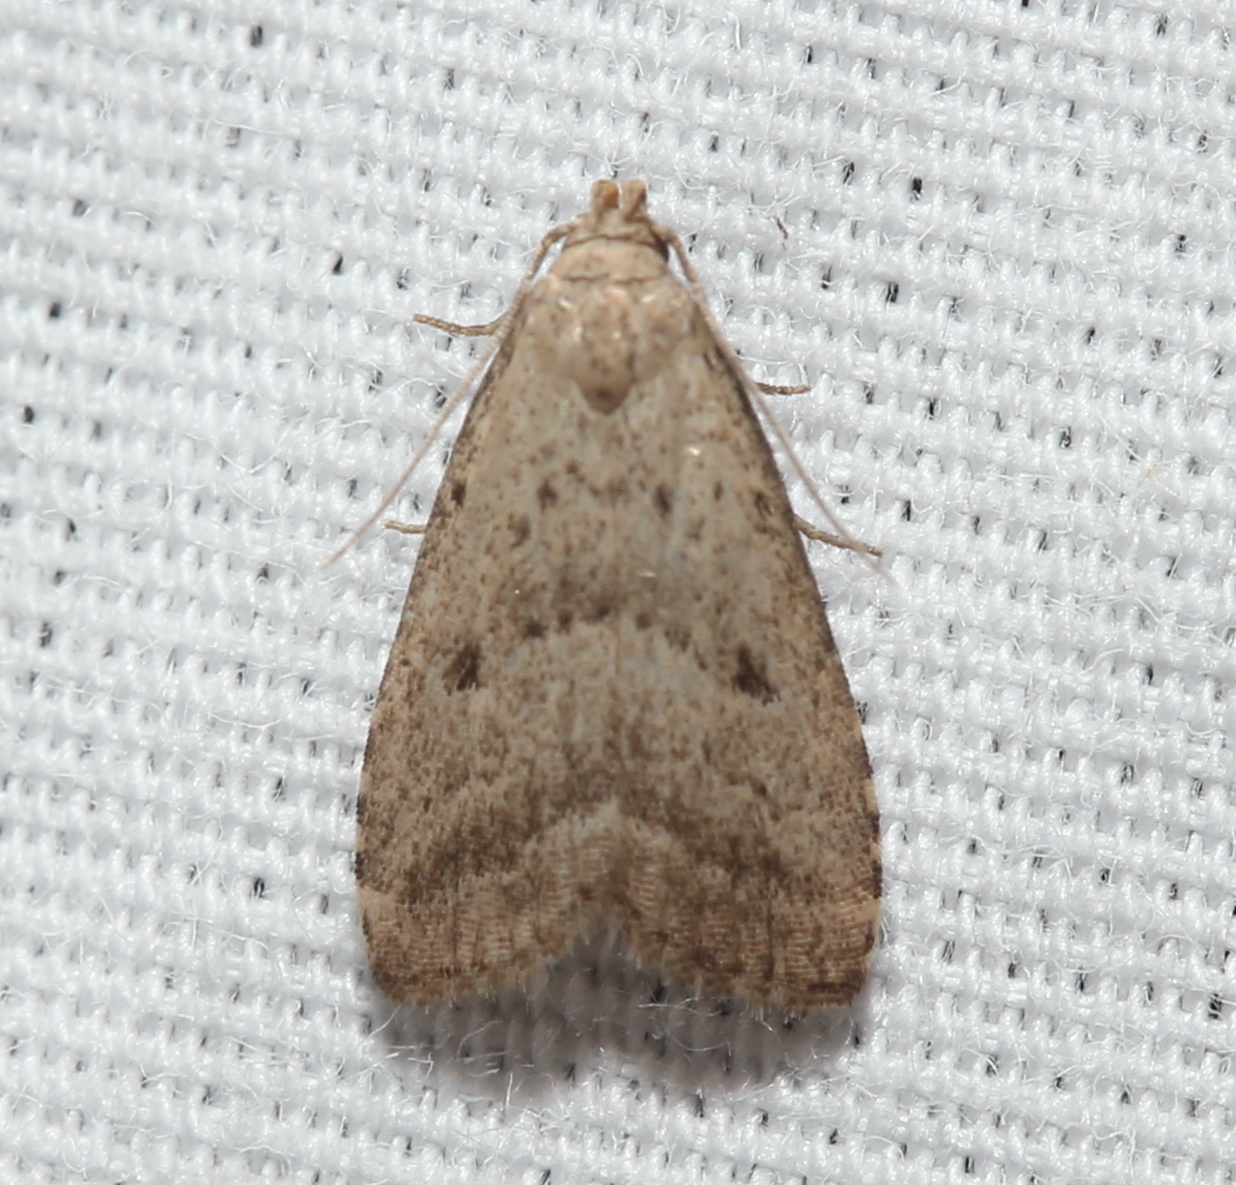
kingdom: Animalia
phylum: Arthropoda
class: Insecta
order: Lepidoptera
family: Erebidae
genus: Hypenodes
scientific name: Hypenodes fractilinea
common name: Broken-line hypenodes moth
